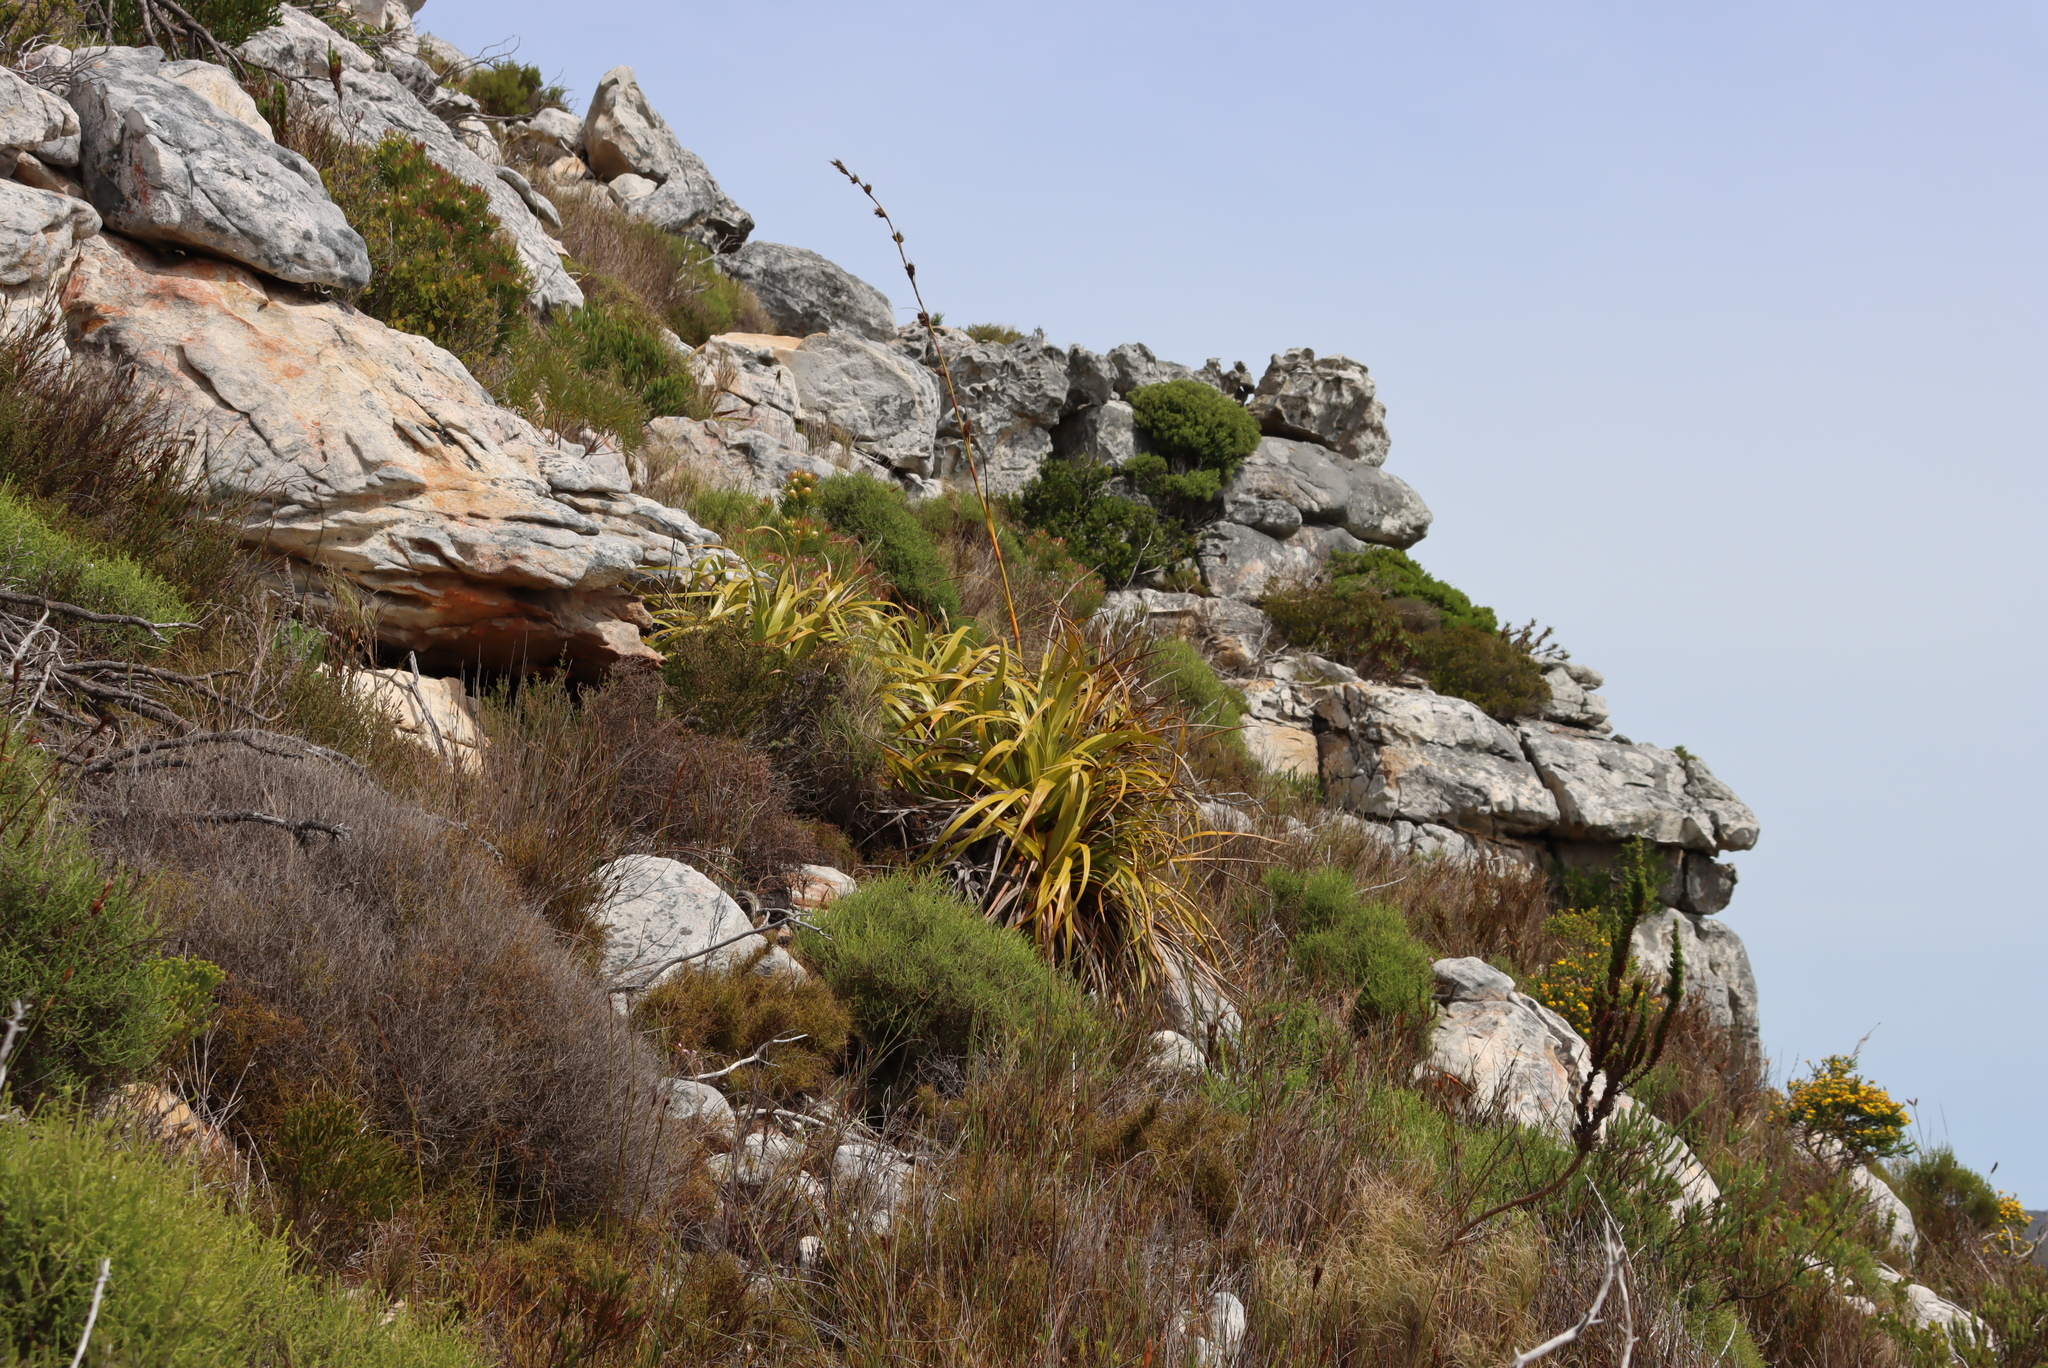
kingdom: Plantae
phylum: Tracheophyta
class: Liliopsida
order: Poales
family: Cyperaceae
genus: Tetraria
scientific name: Tetraria thermalis
